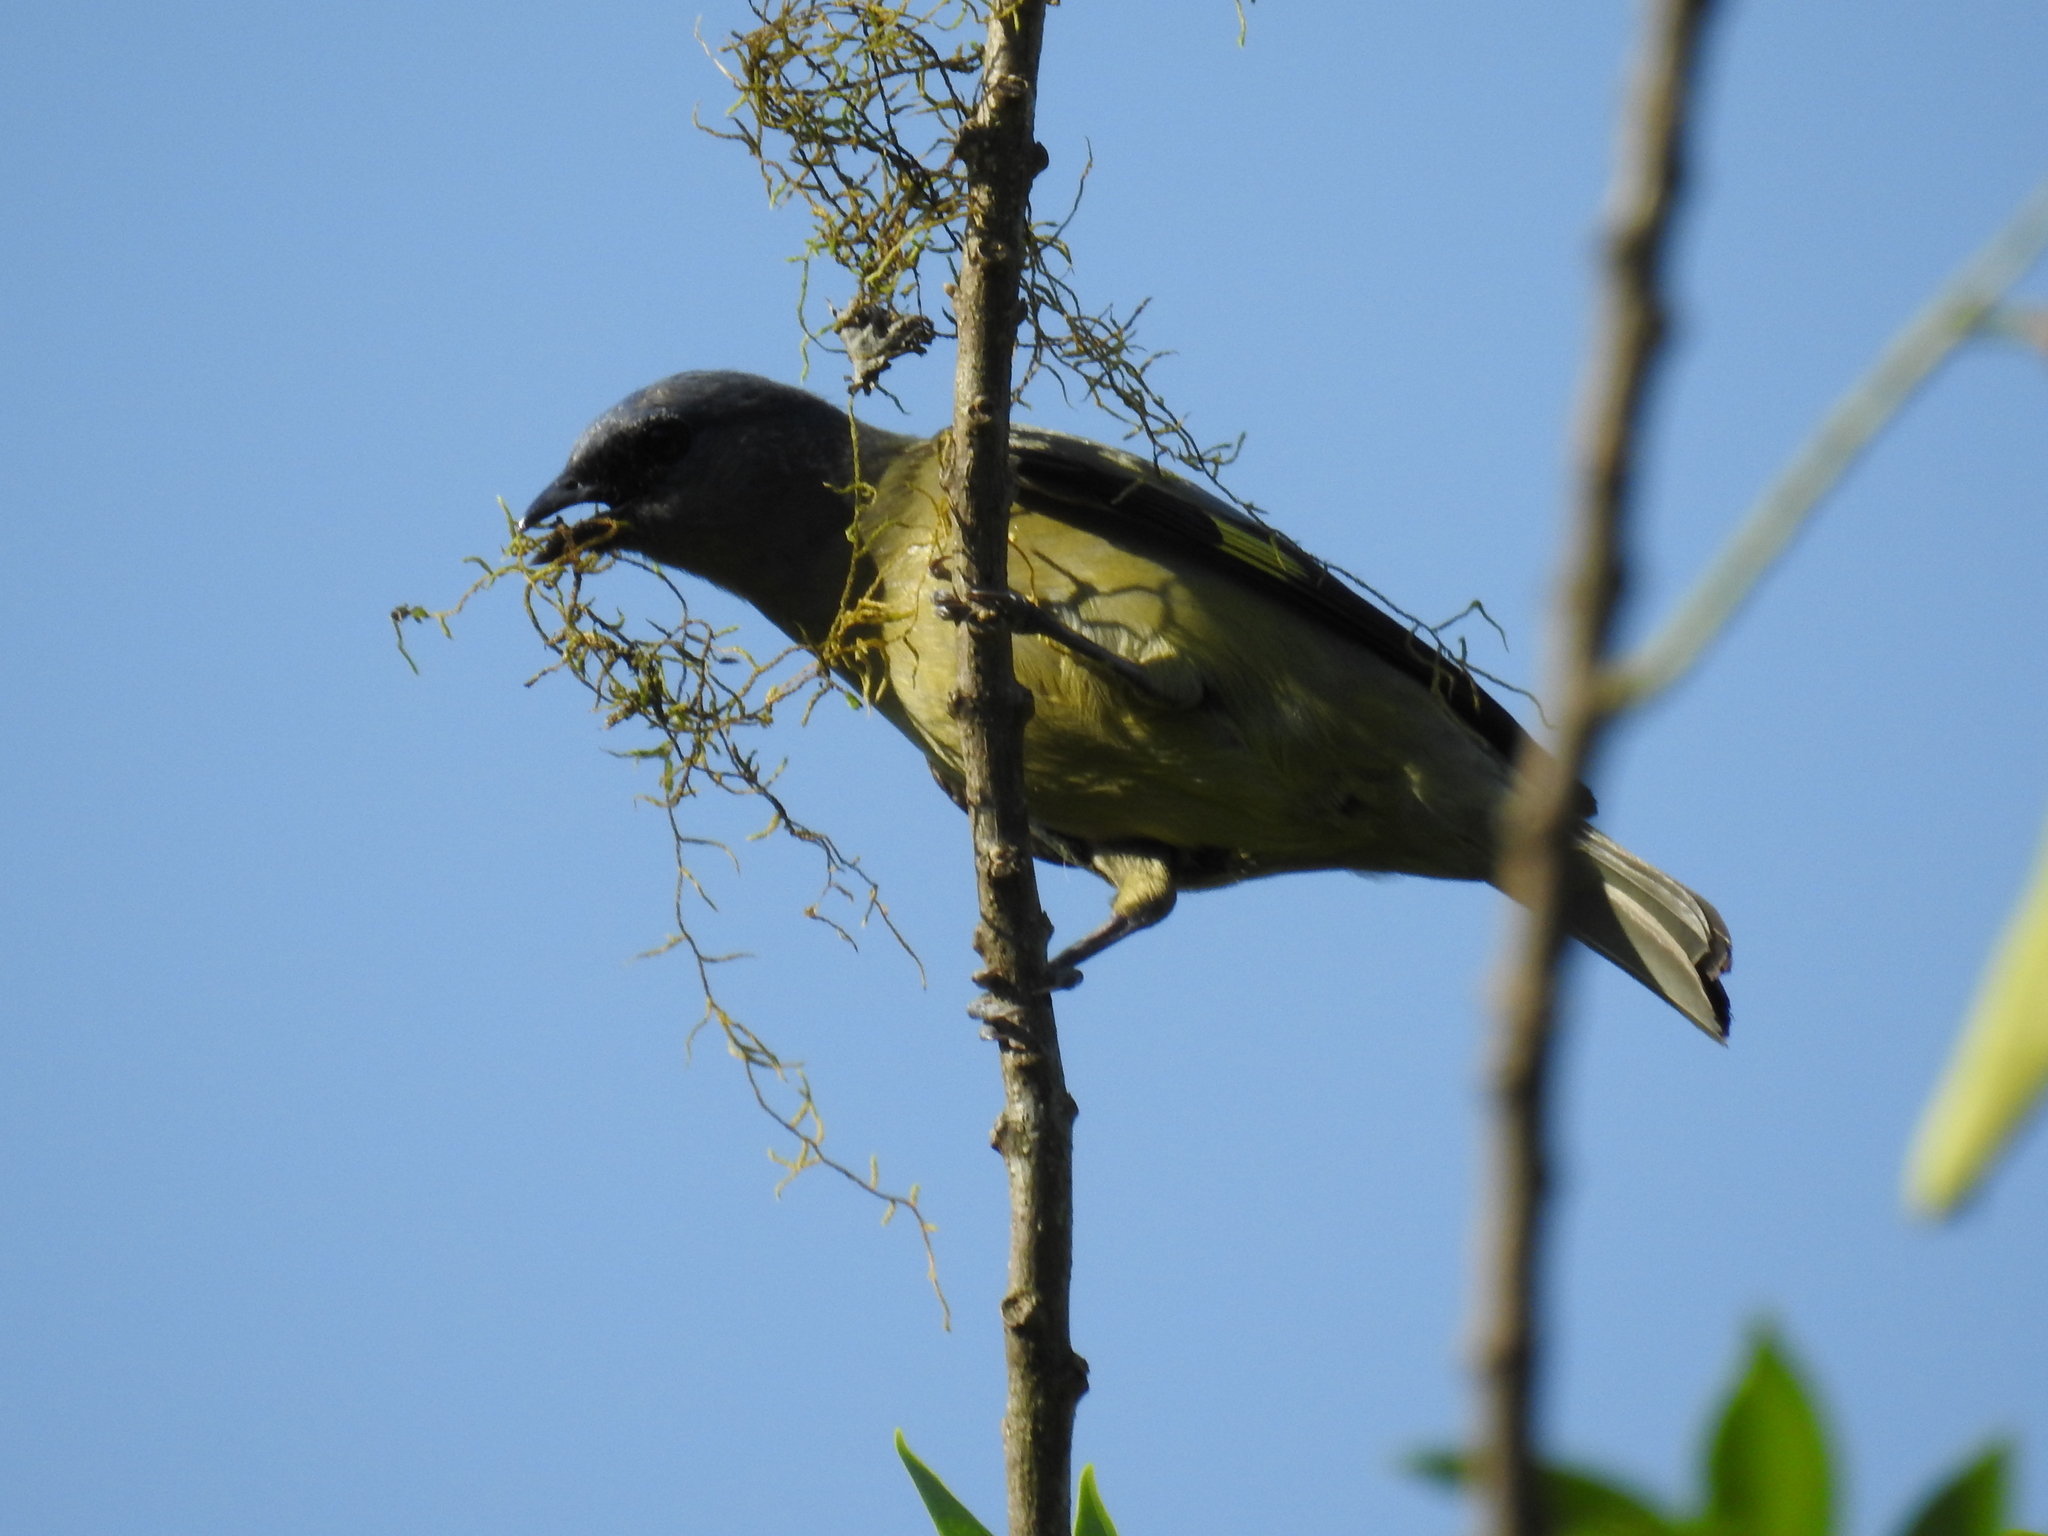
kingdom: Animalia
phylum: Chordata
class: Aves
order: Passeriformes
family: Thraupidae
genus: Thraupis
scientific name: Thraupis abbas
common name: Yellow-winged tanager
